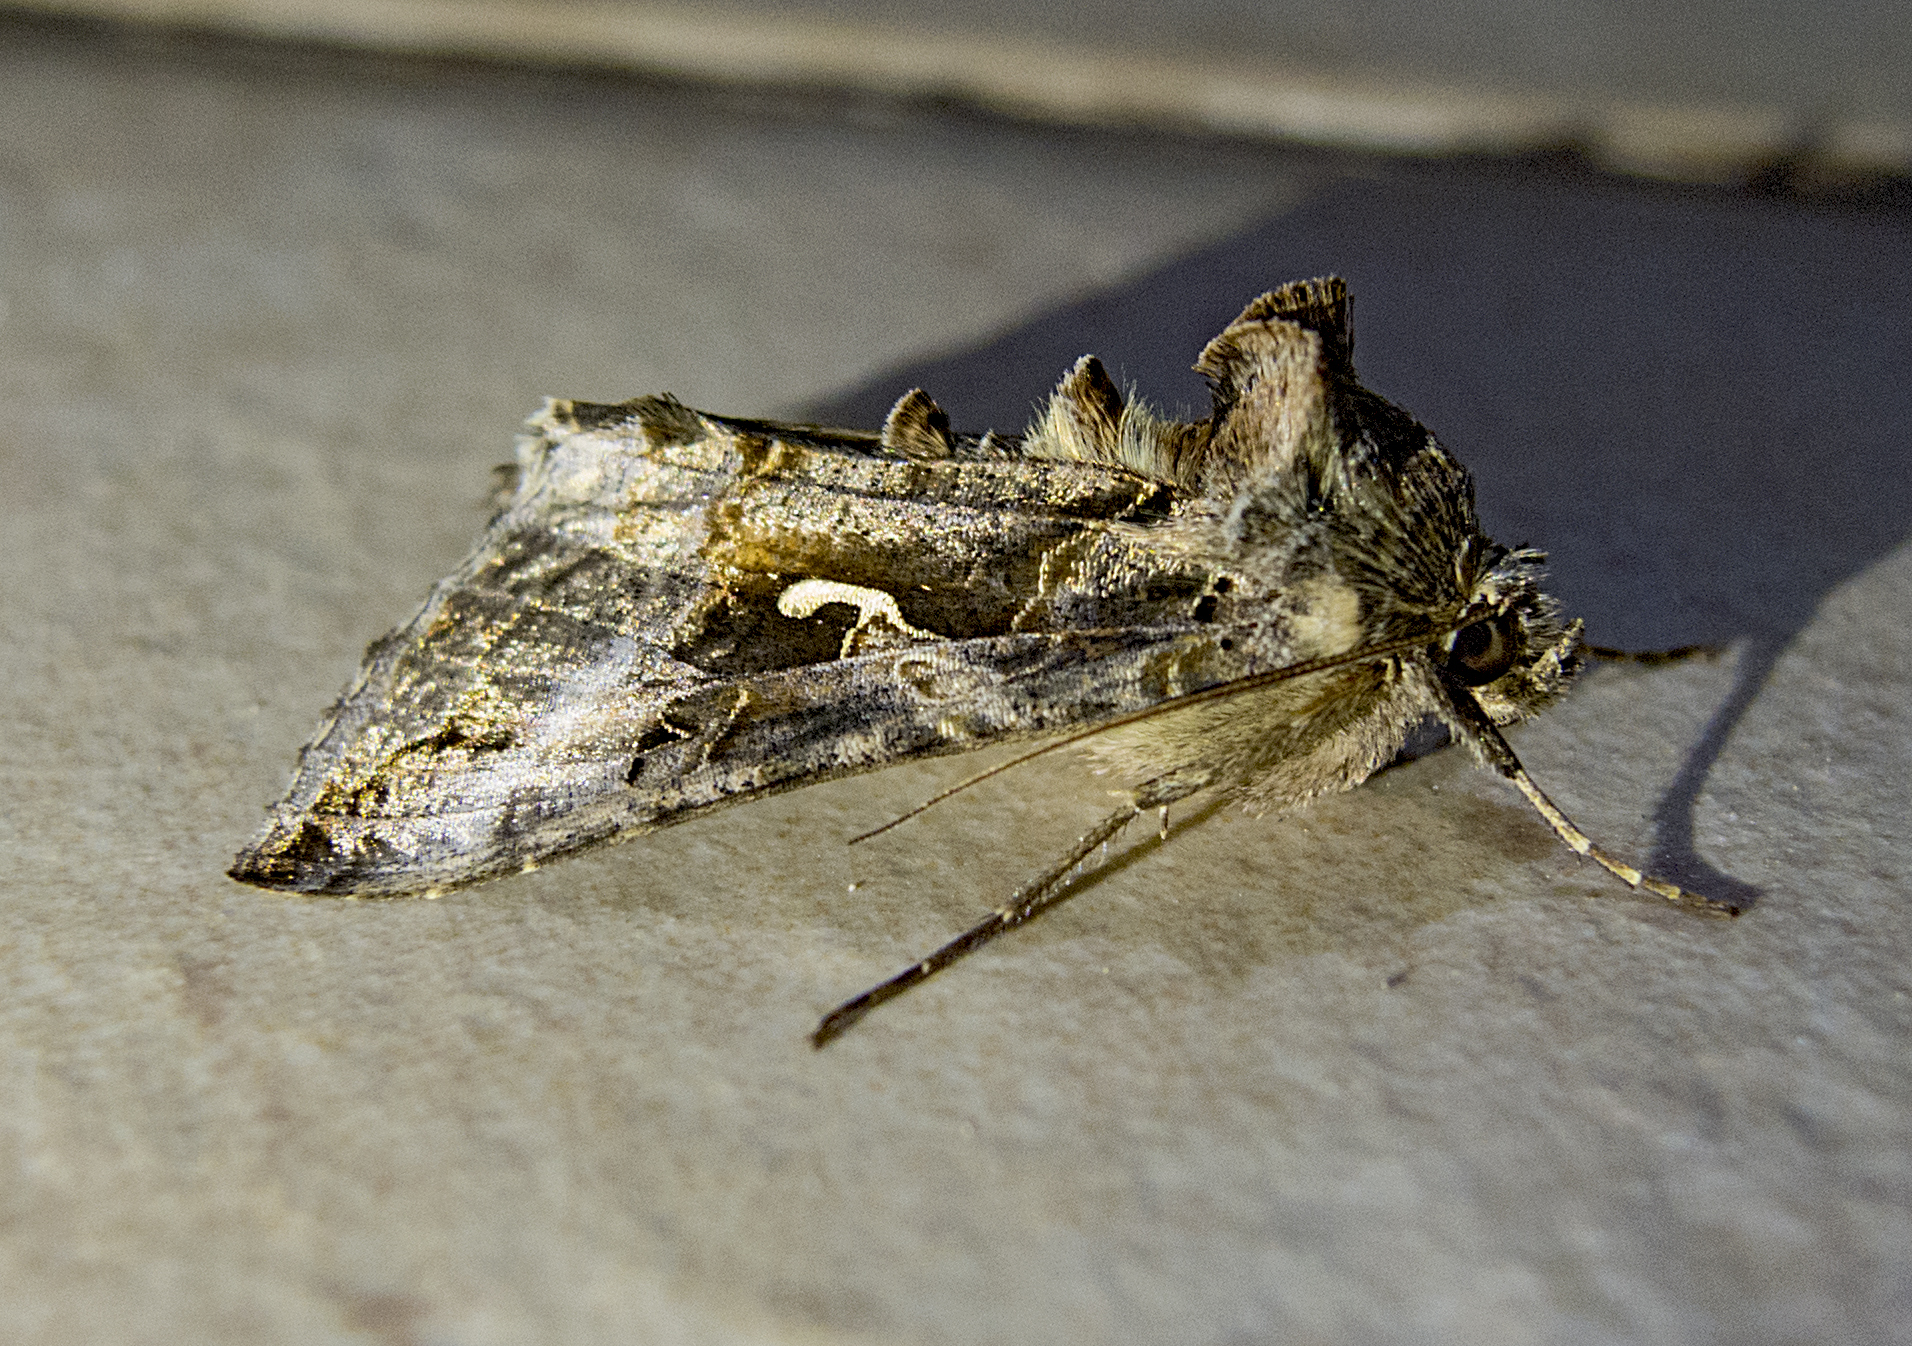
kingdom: Animalia
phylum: Arthropoda
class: Insecta
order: Lepidoptera
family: Noctuidae
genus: Autographa
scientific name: Autographa gamma
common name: Silver y
